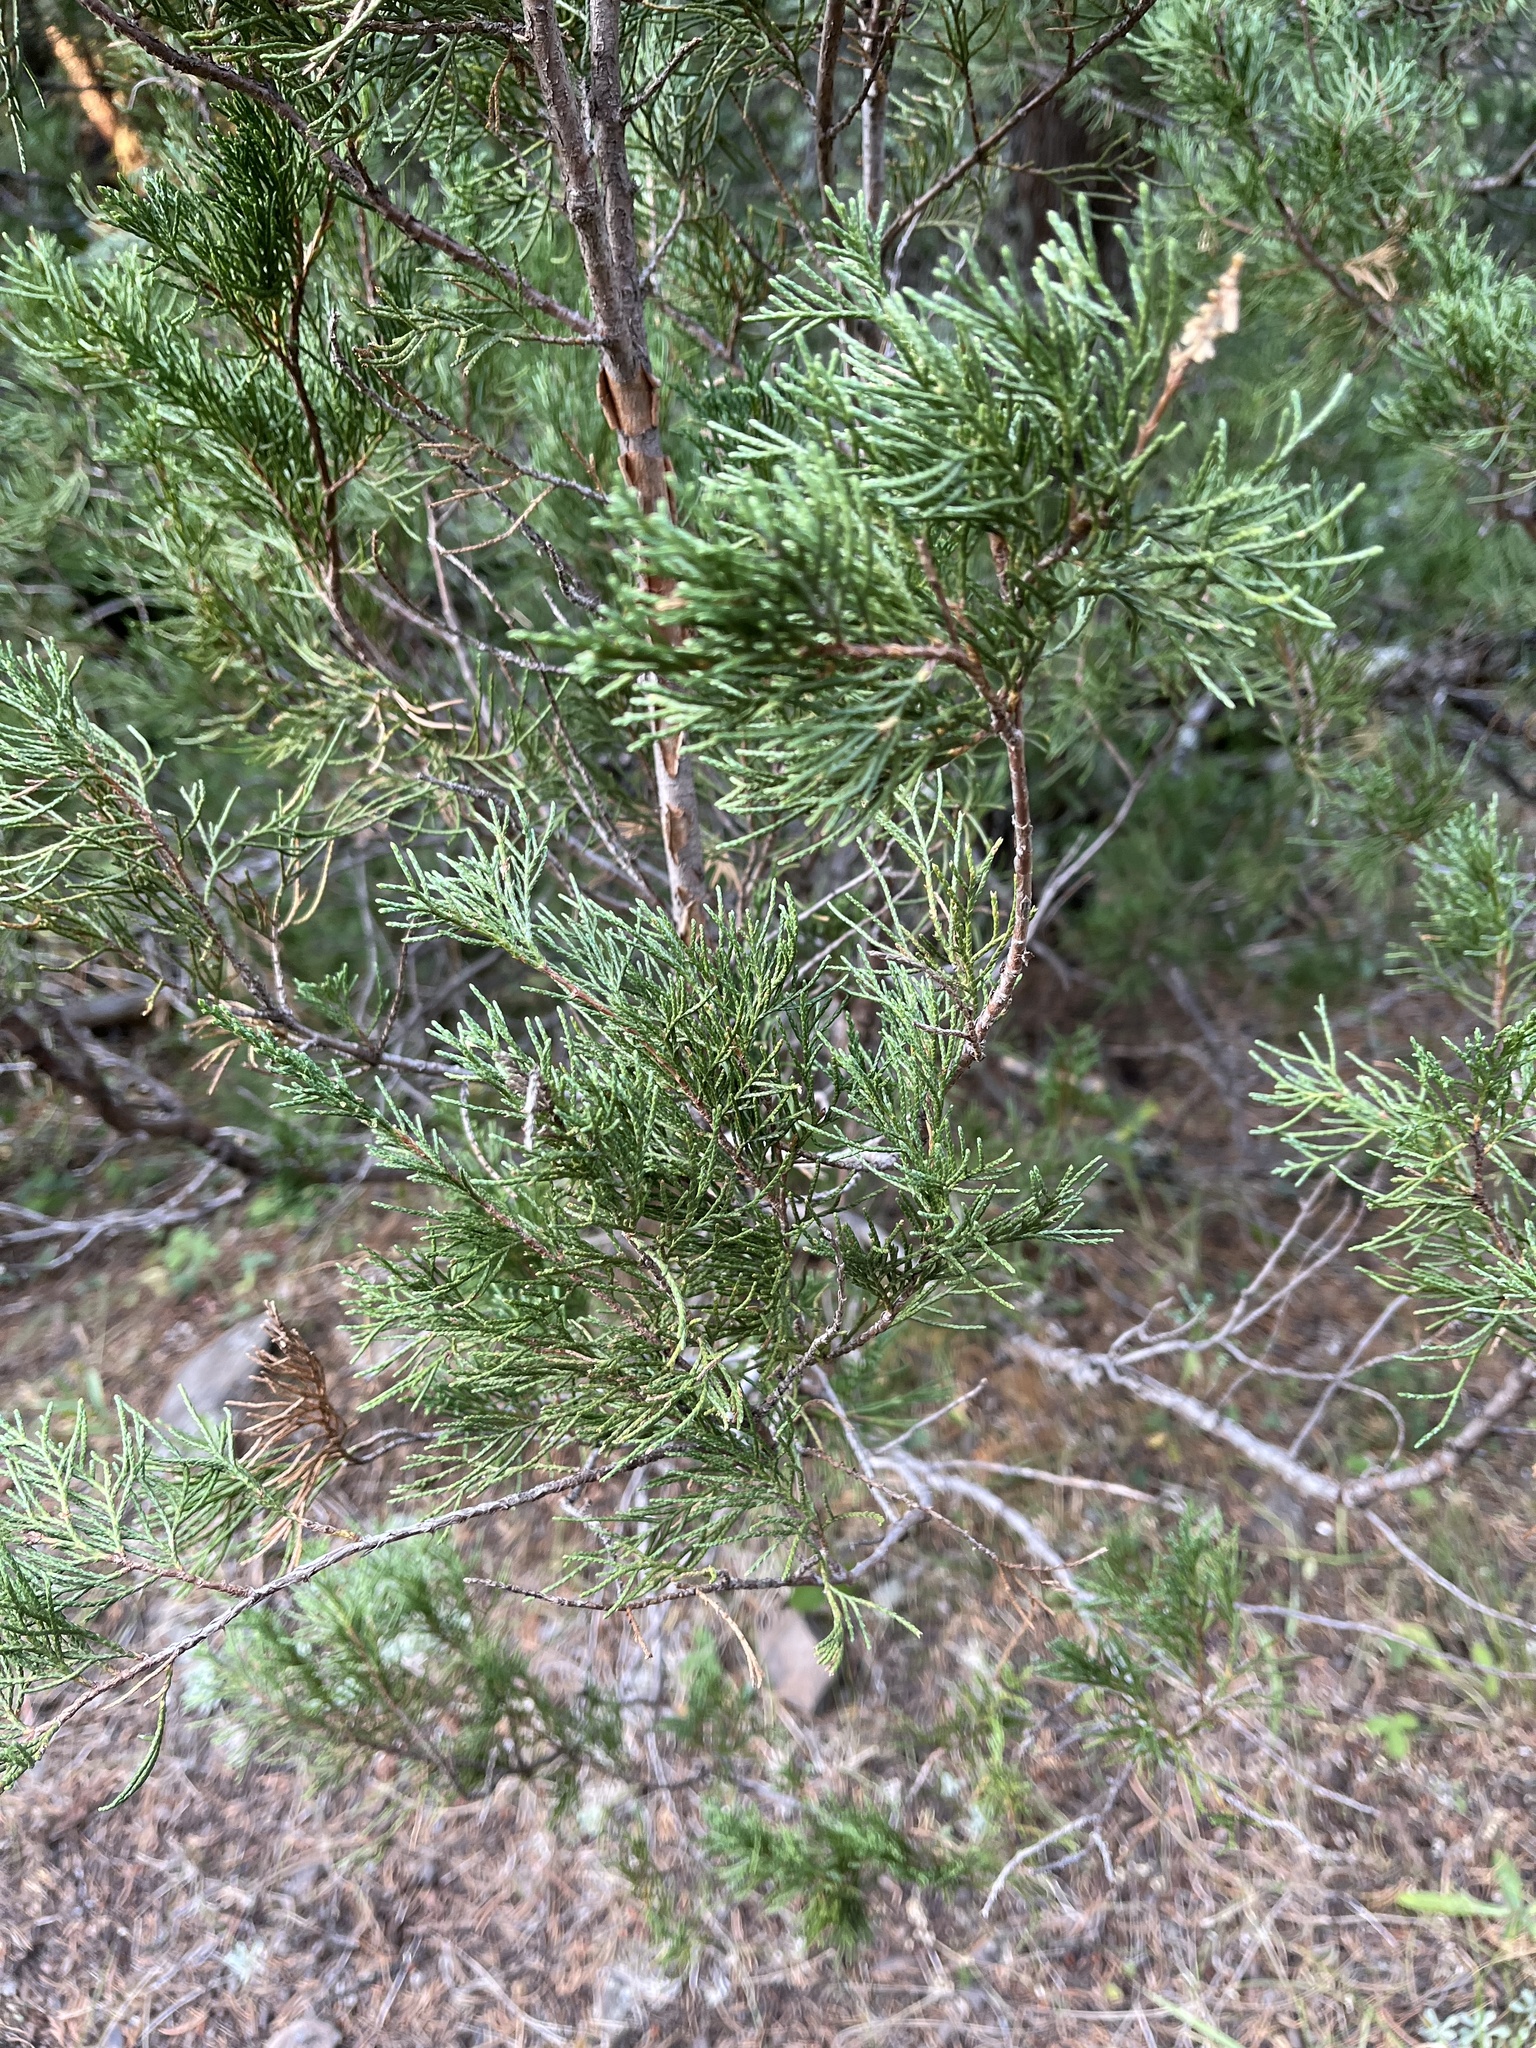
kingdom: Plantae
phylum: Tracheophyta
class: Pinopsida
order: Pinales
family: Cupressaceae
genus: Juniperus
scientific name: Juniperus scopulorum
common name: Rocky mountain juniper
